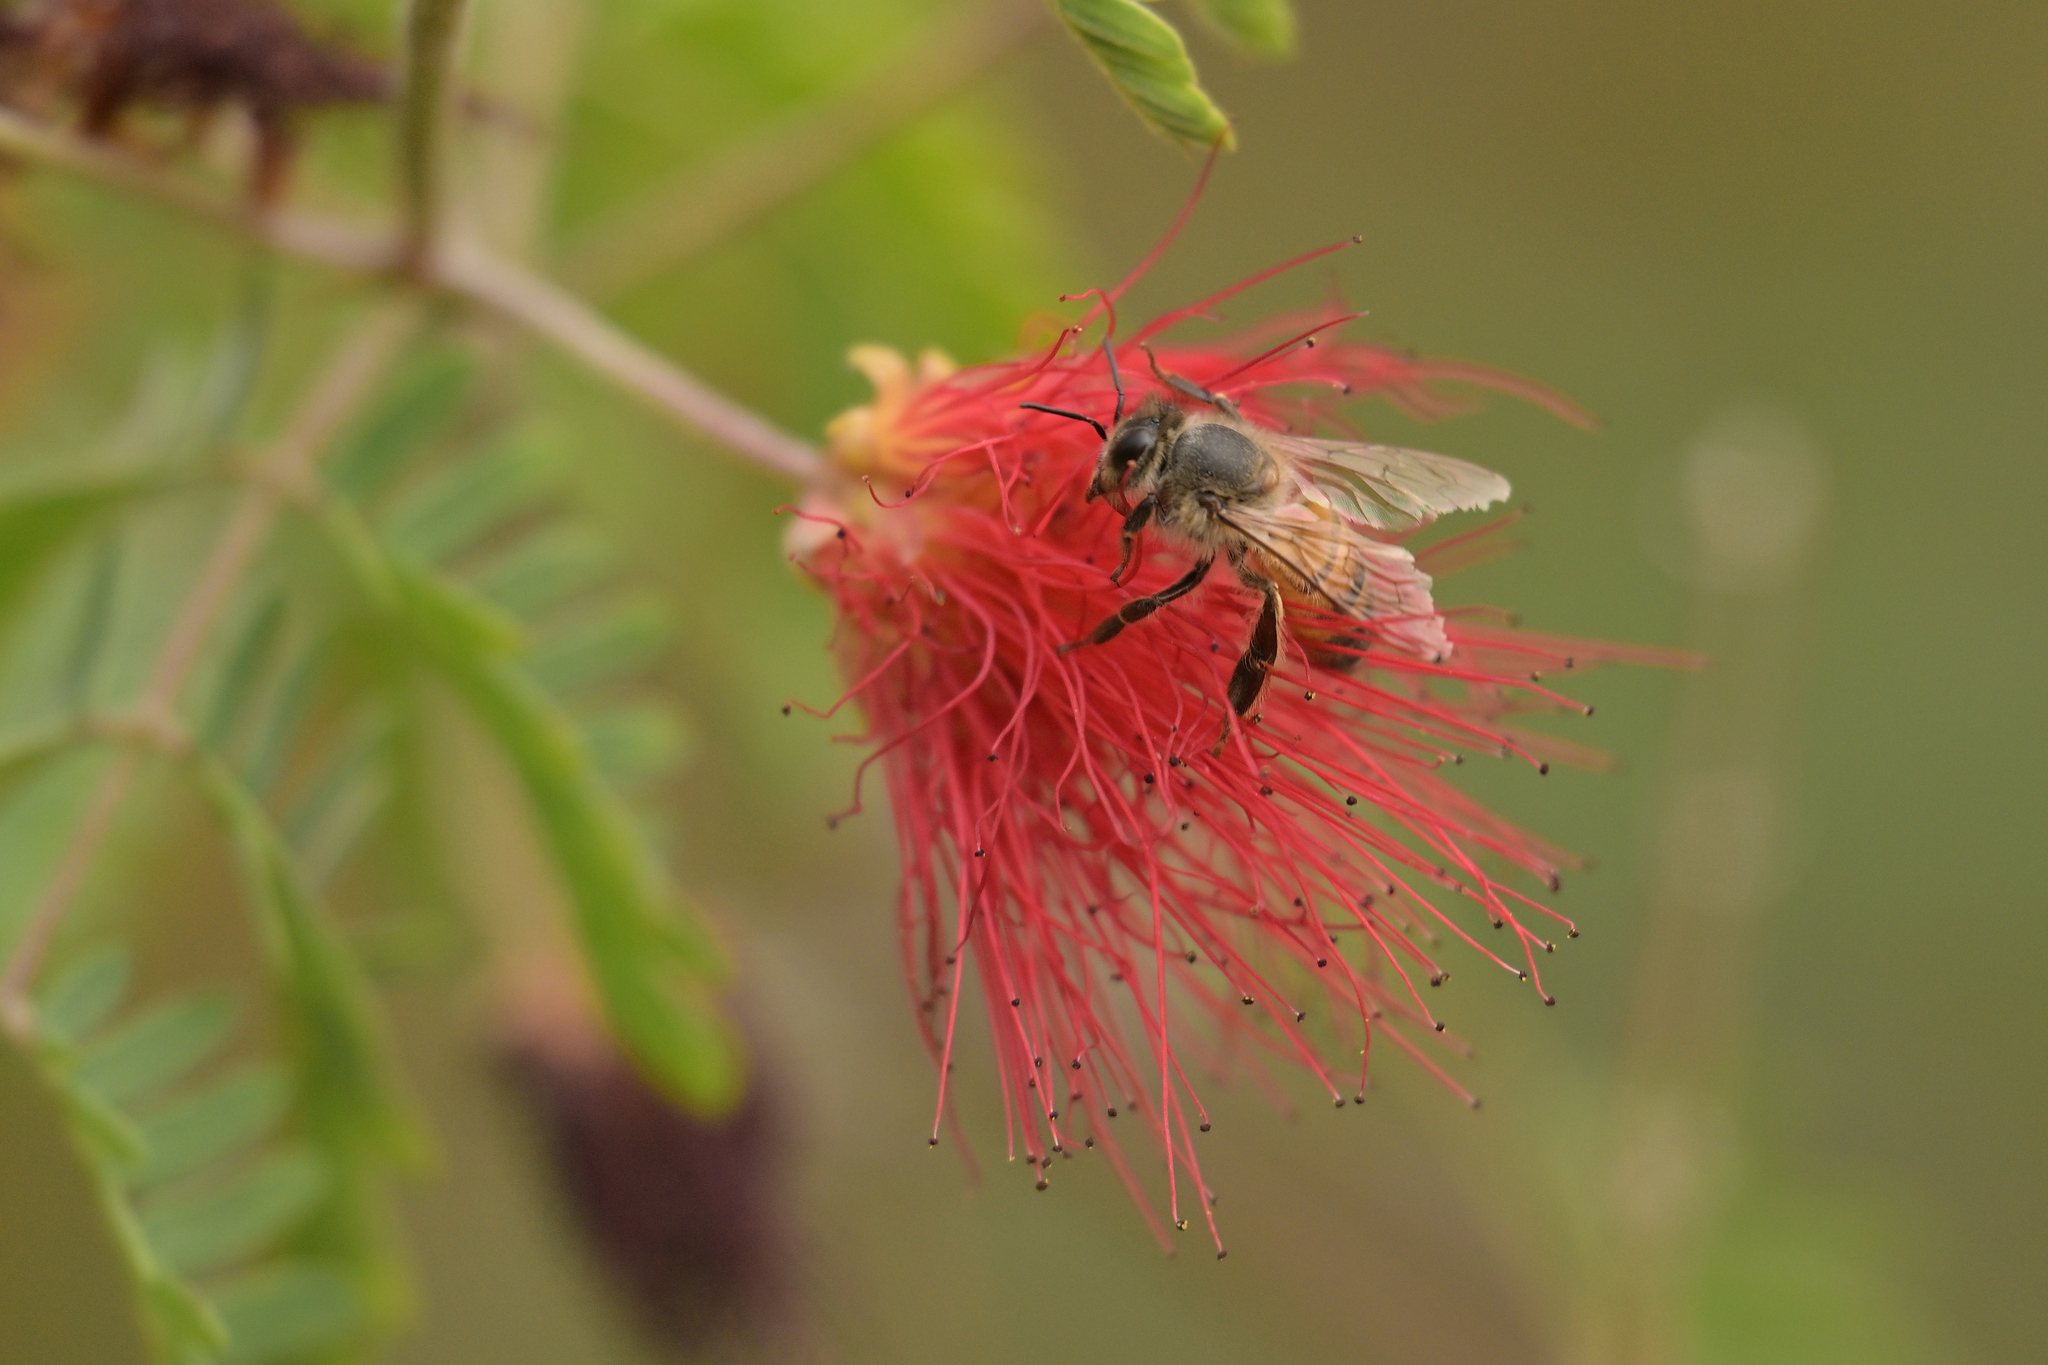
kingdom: Animalia
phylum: Arthropoda
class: Insecta
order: Hymenoptera
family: Apidae
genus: Apis
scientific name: Apis mellifera
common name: Honey bee
